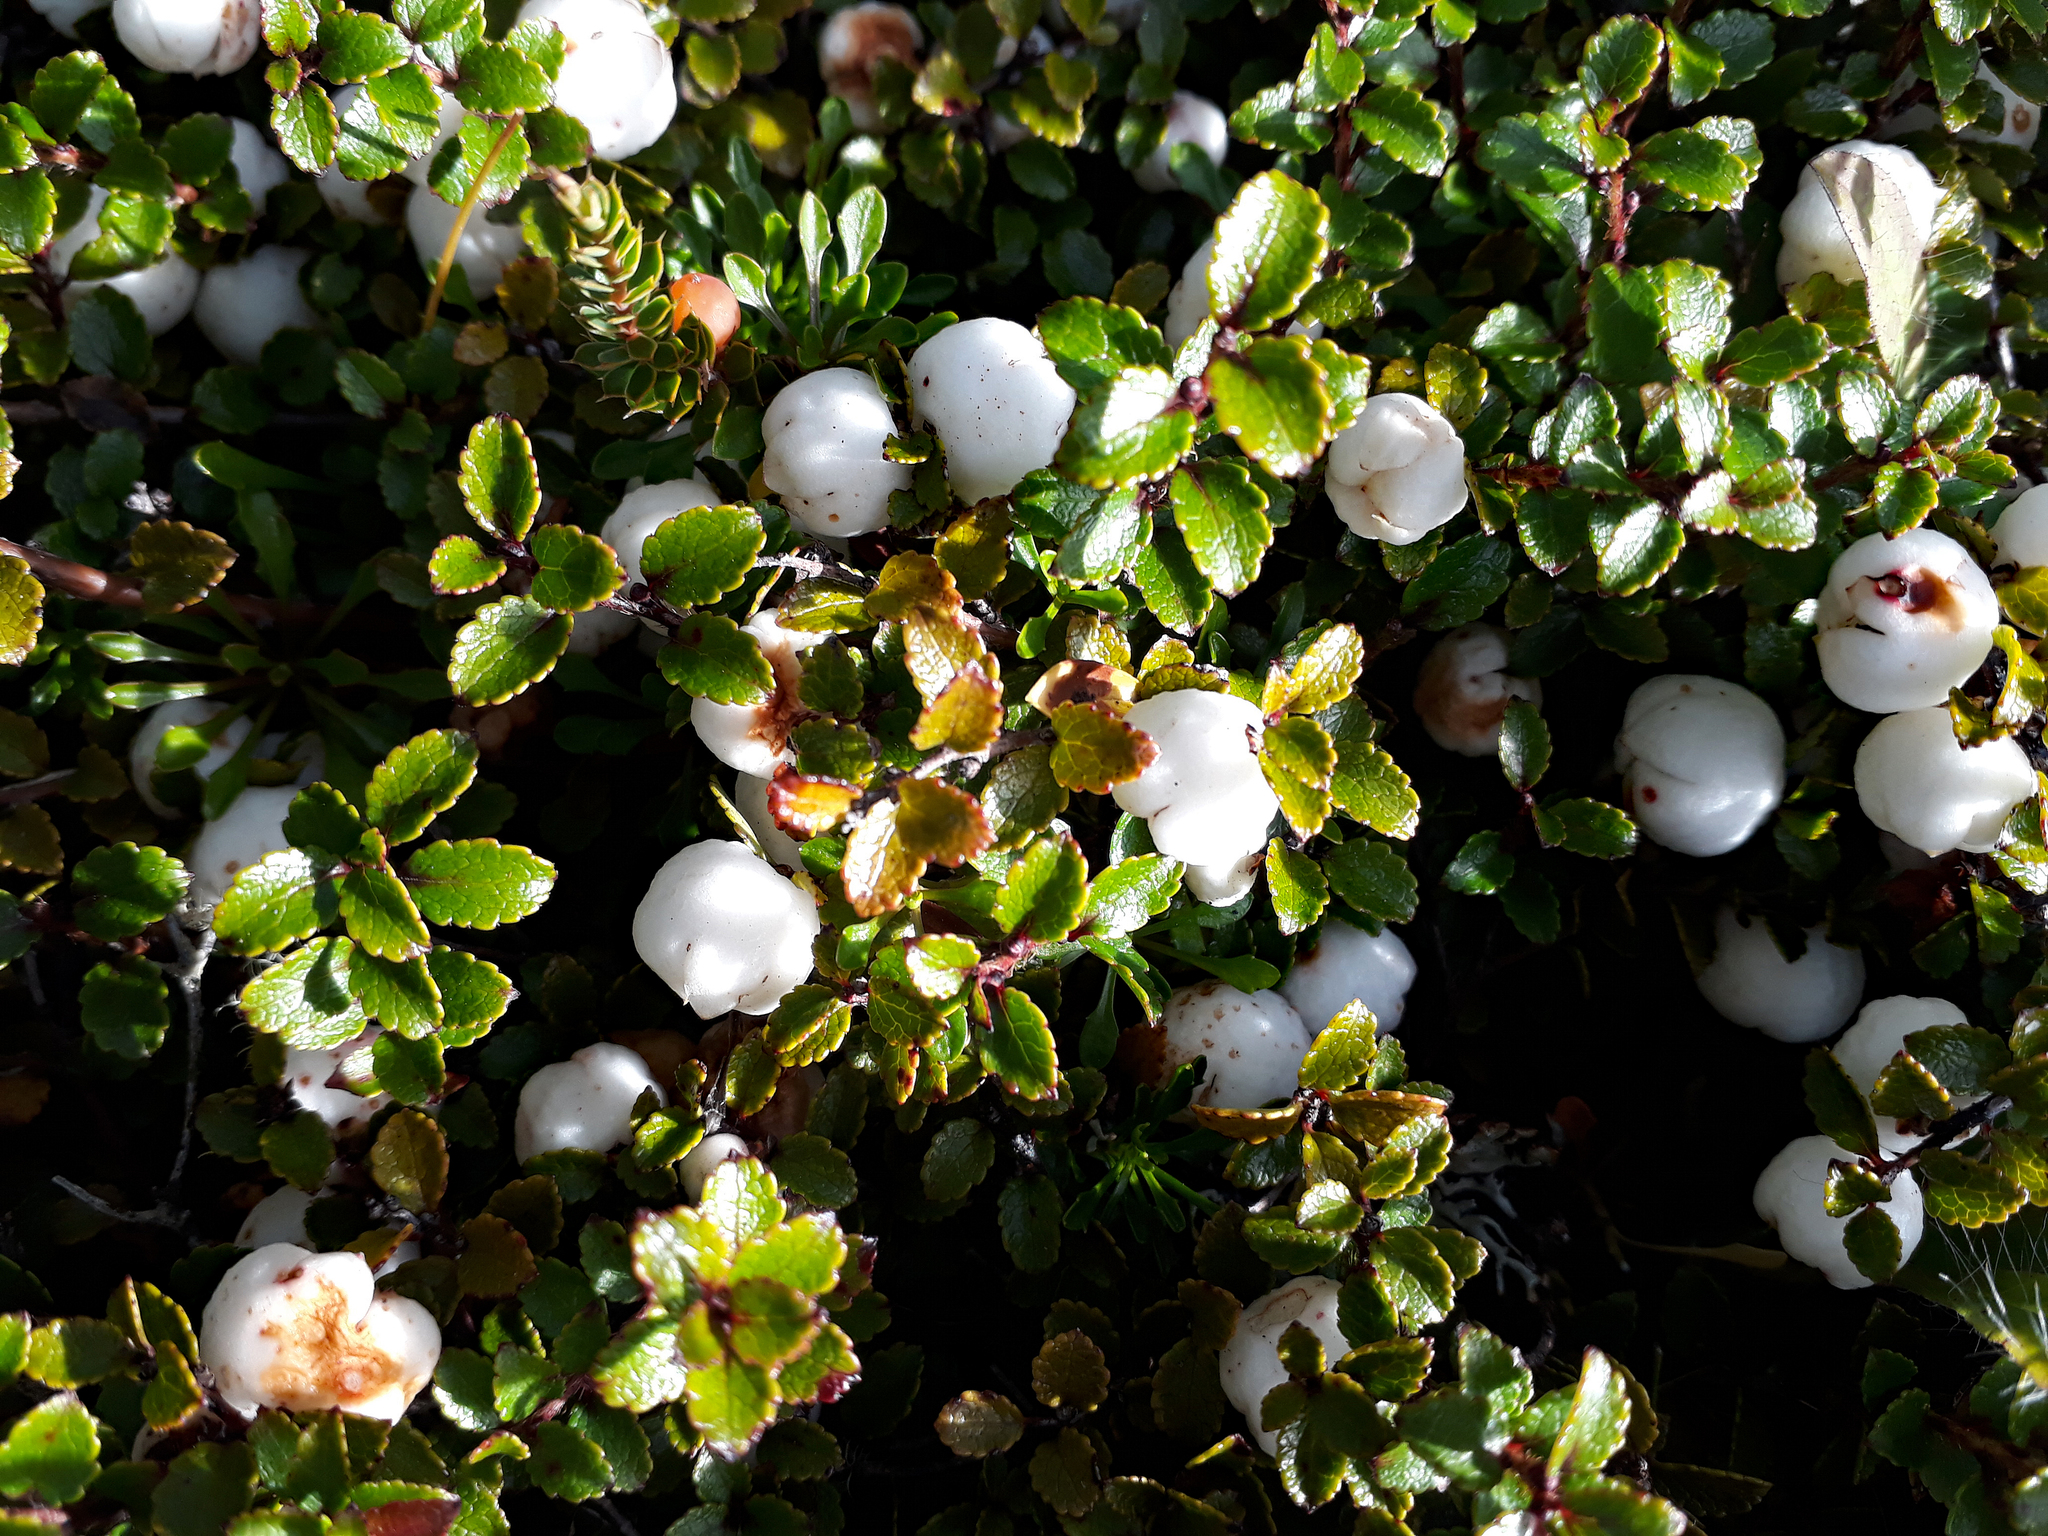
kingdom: Plantae
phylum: Tracheophyta
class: Magnoliopsida
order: Ericales
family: Ericaceae
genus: Gaultheria
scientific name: Gaultheria depressa
